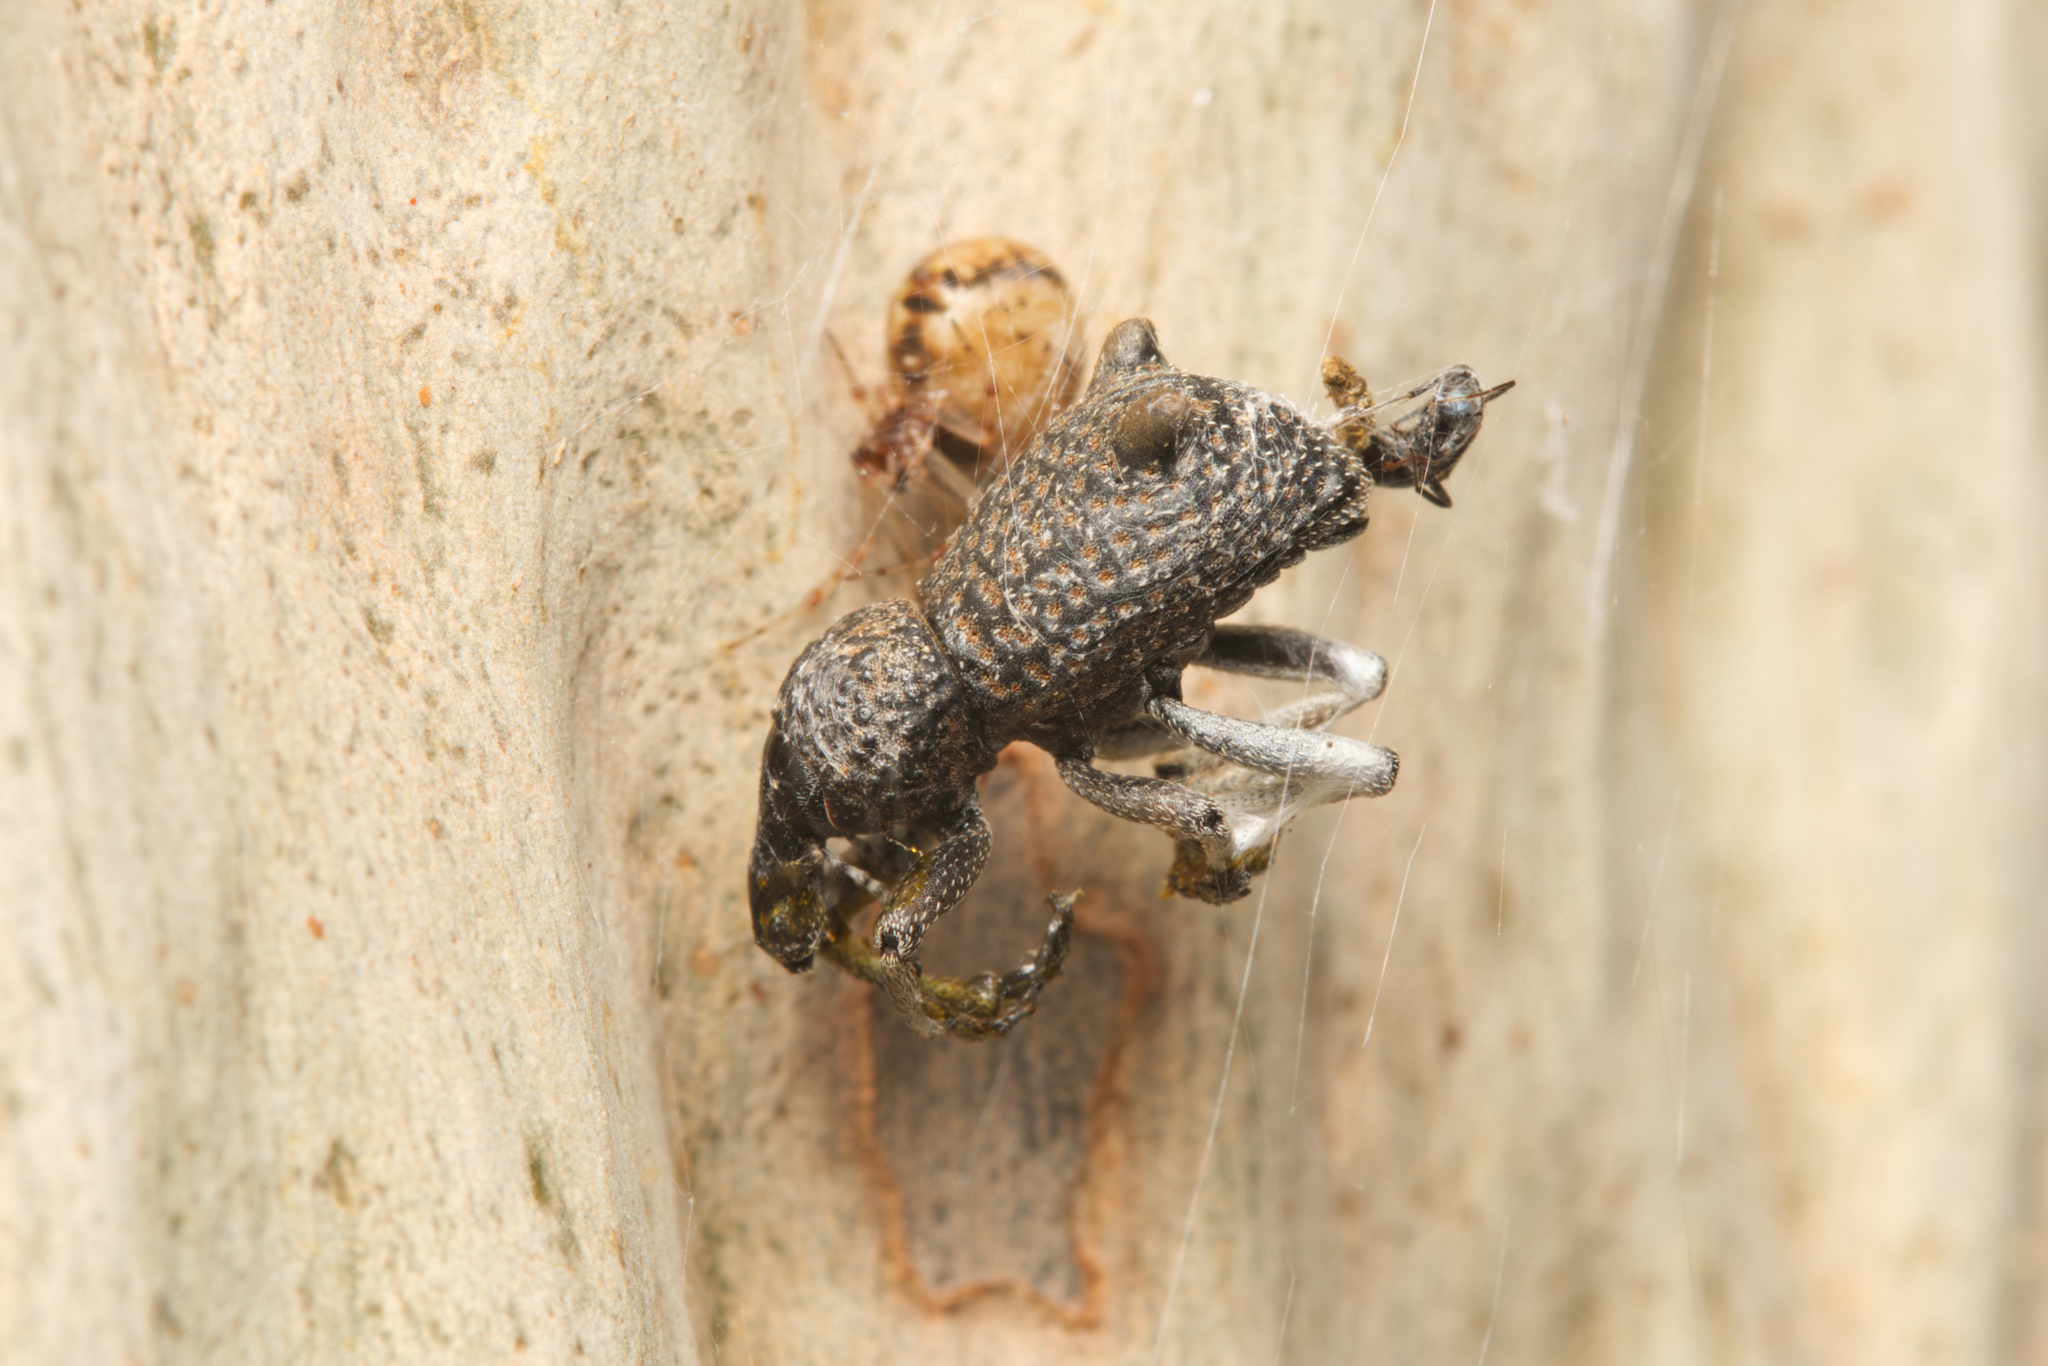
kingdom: Animalia
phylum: Arthropoda
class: Insecta
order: Coleoptera
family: Curculionidae
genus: Zymaus
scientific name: Zymaus binodosus
